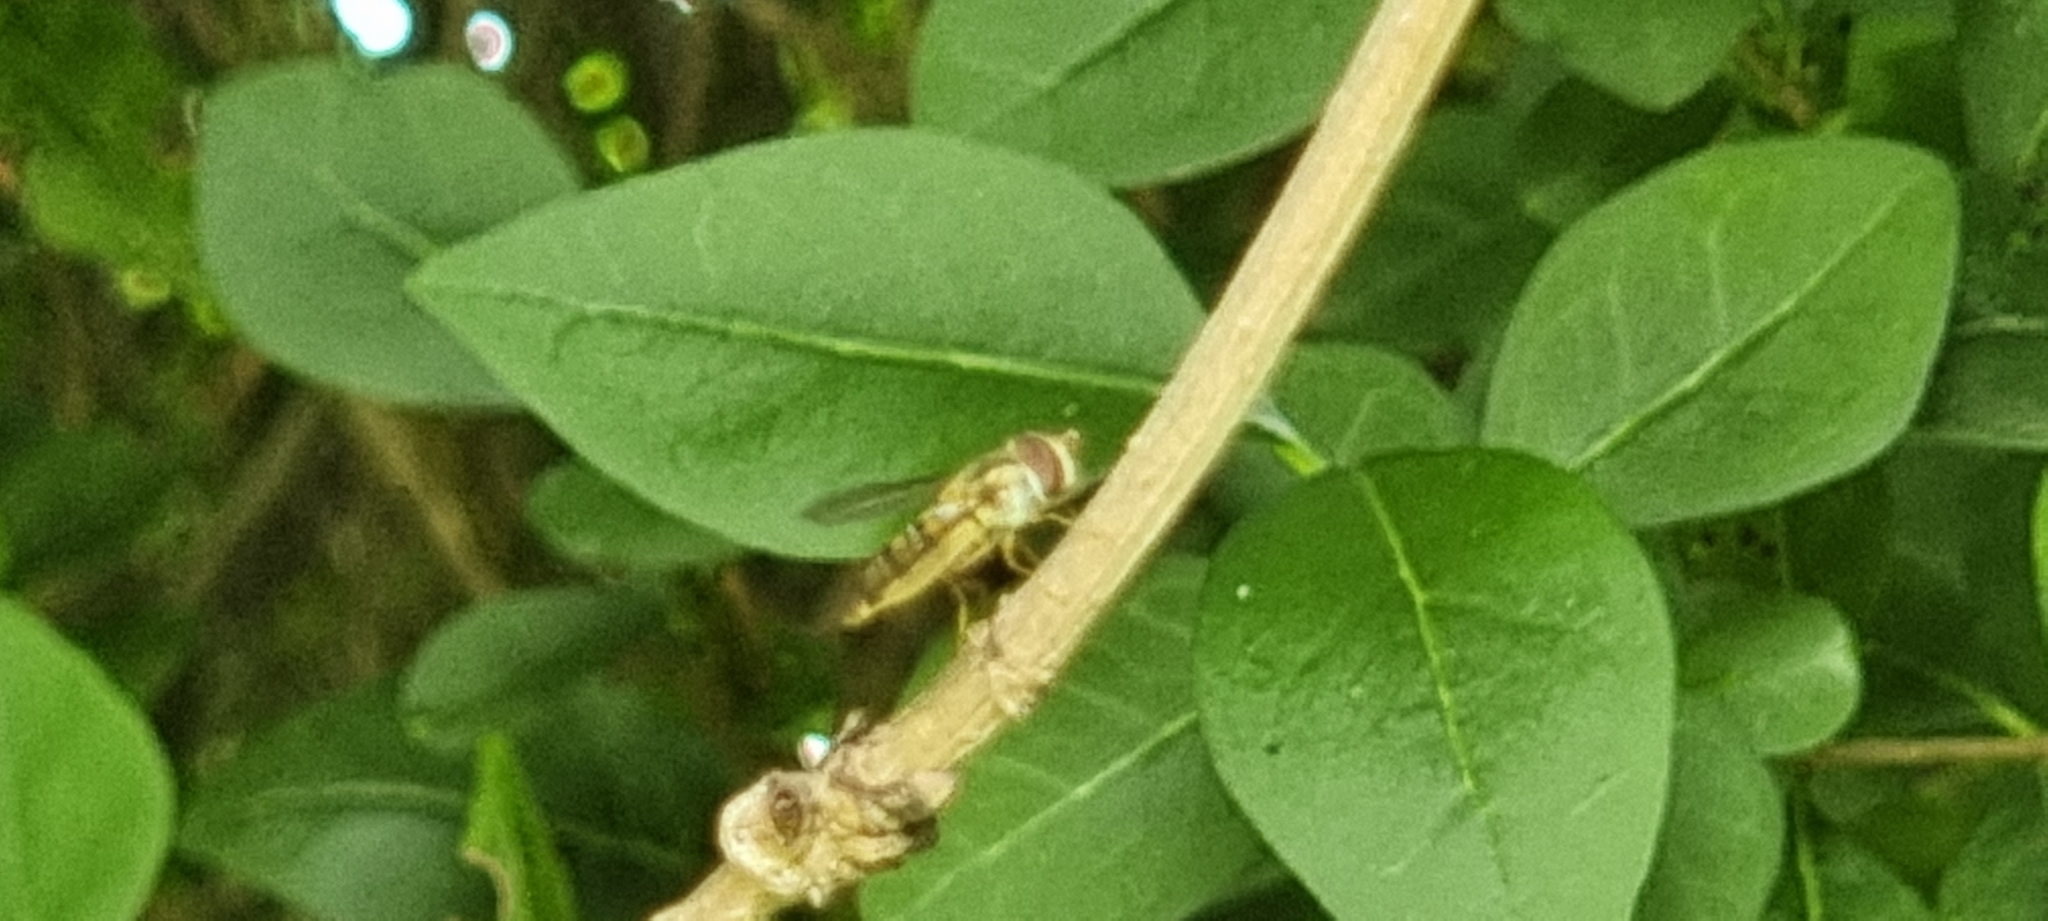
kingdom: Animalia
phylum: Arthropoda
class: Insecta
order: Diptera
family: Syrphidae
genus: Episyrphus
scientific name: Episyrphus balteatus
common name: Marmalade hoverfly
